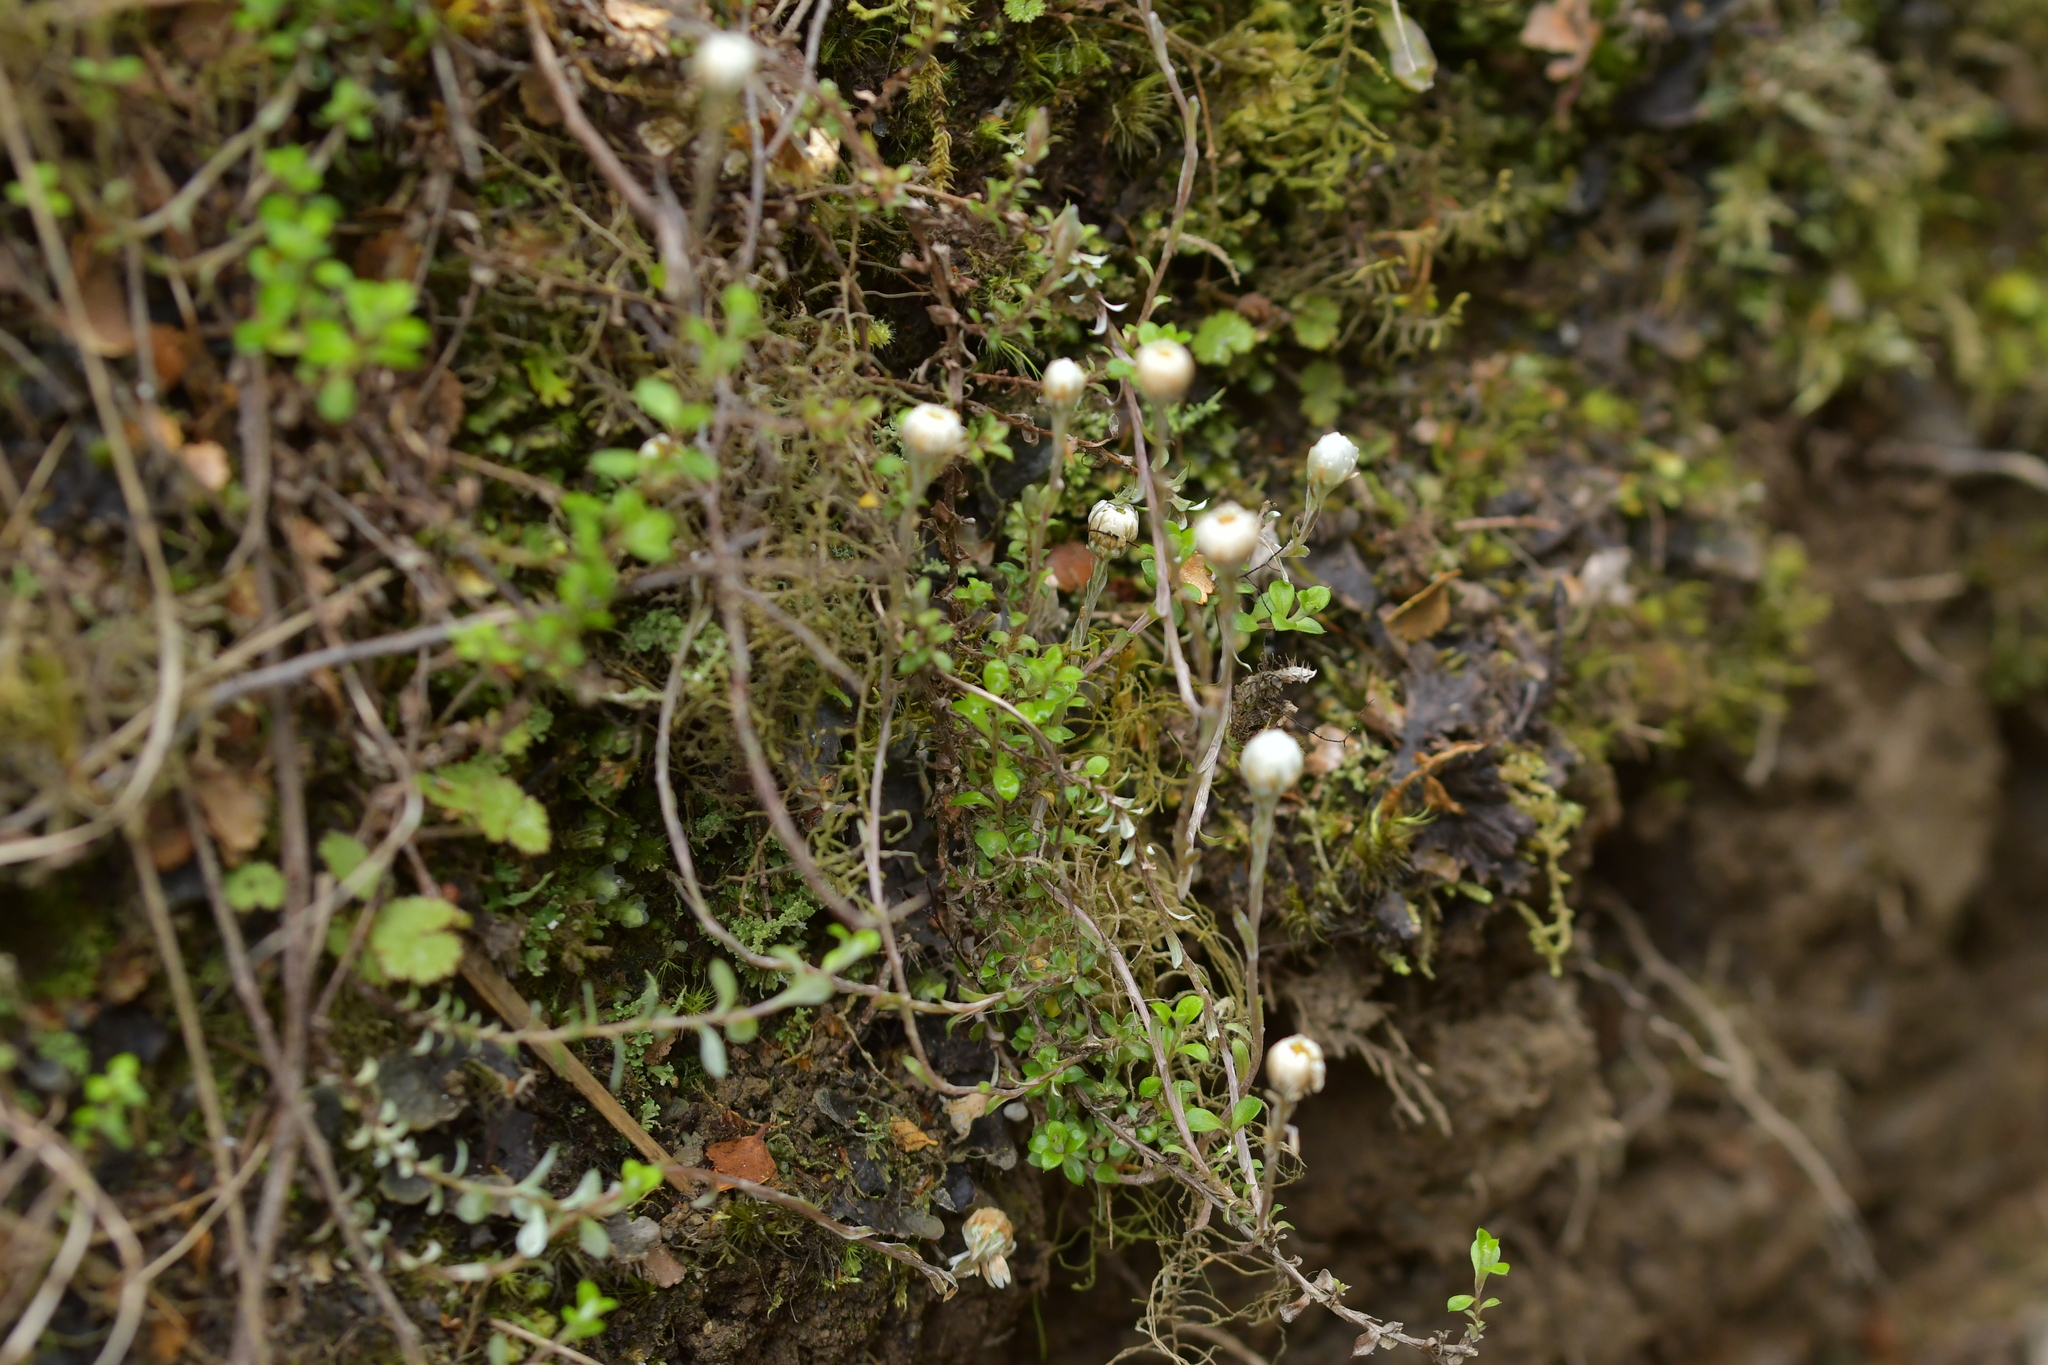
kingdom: Plantae
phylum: Tracheophyta
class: Magnoliopsida
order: Asterales
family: Asteraceae
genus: Anaphalioides
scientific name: Anaphalioides bellidioides
